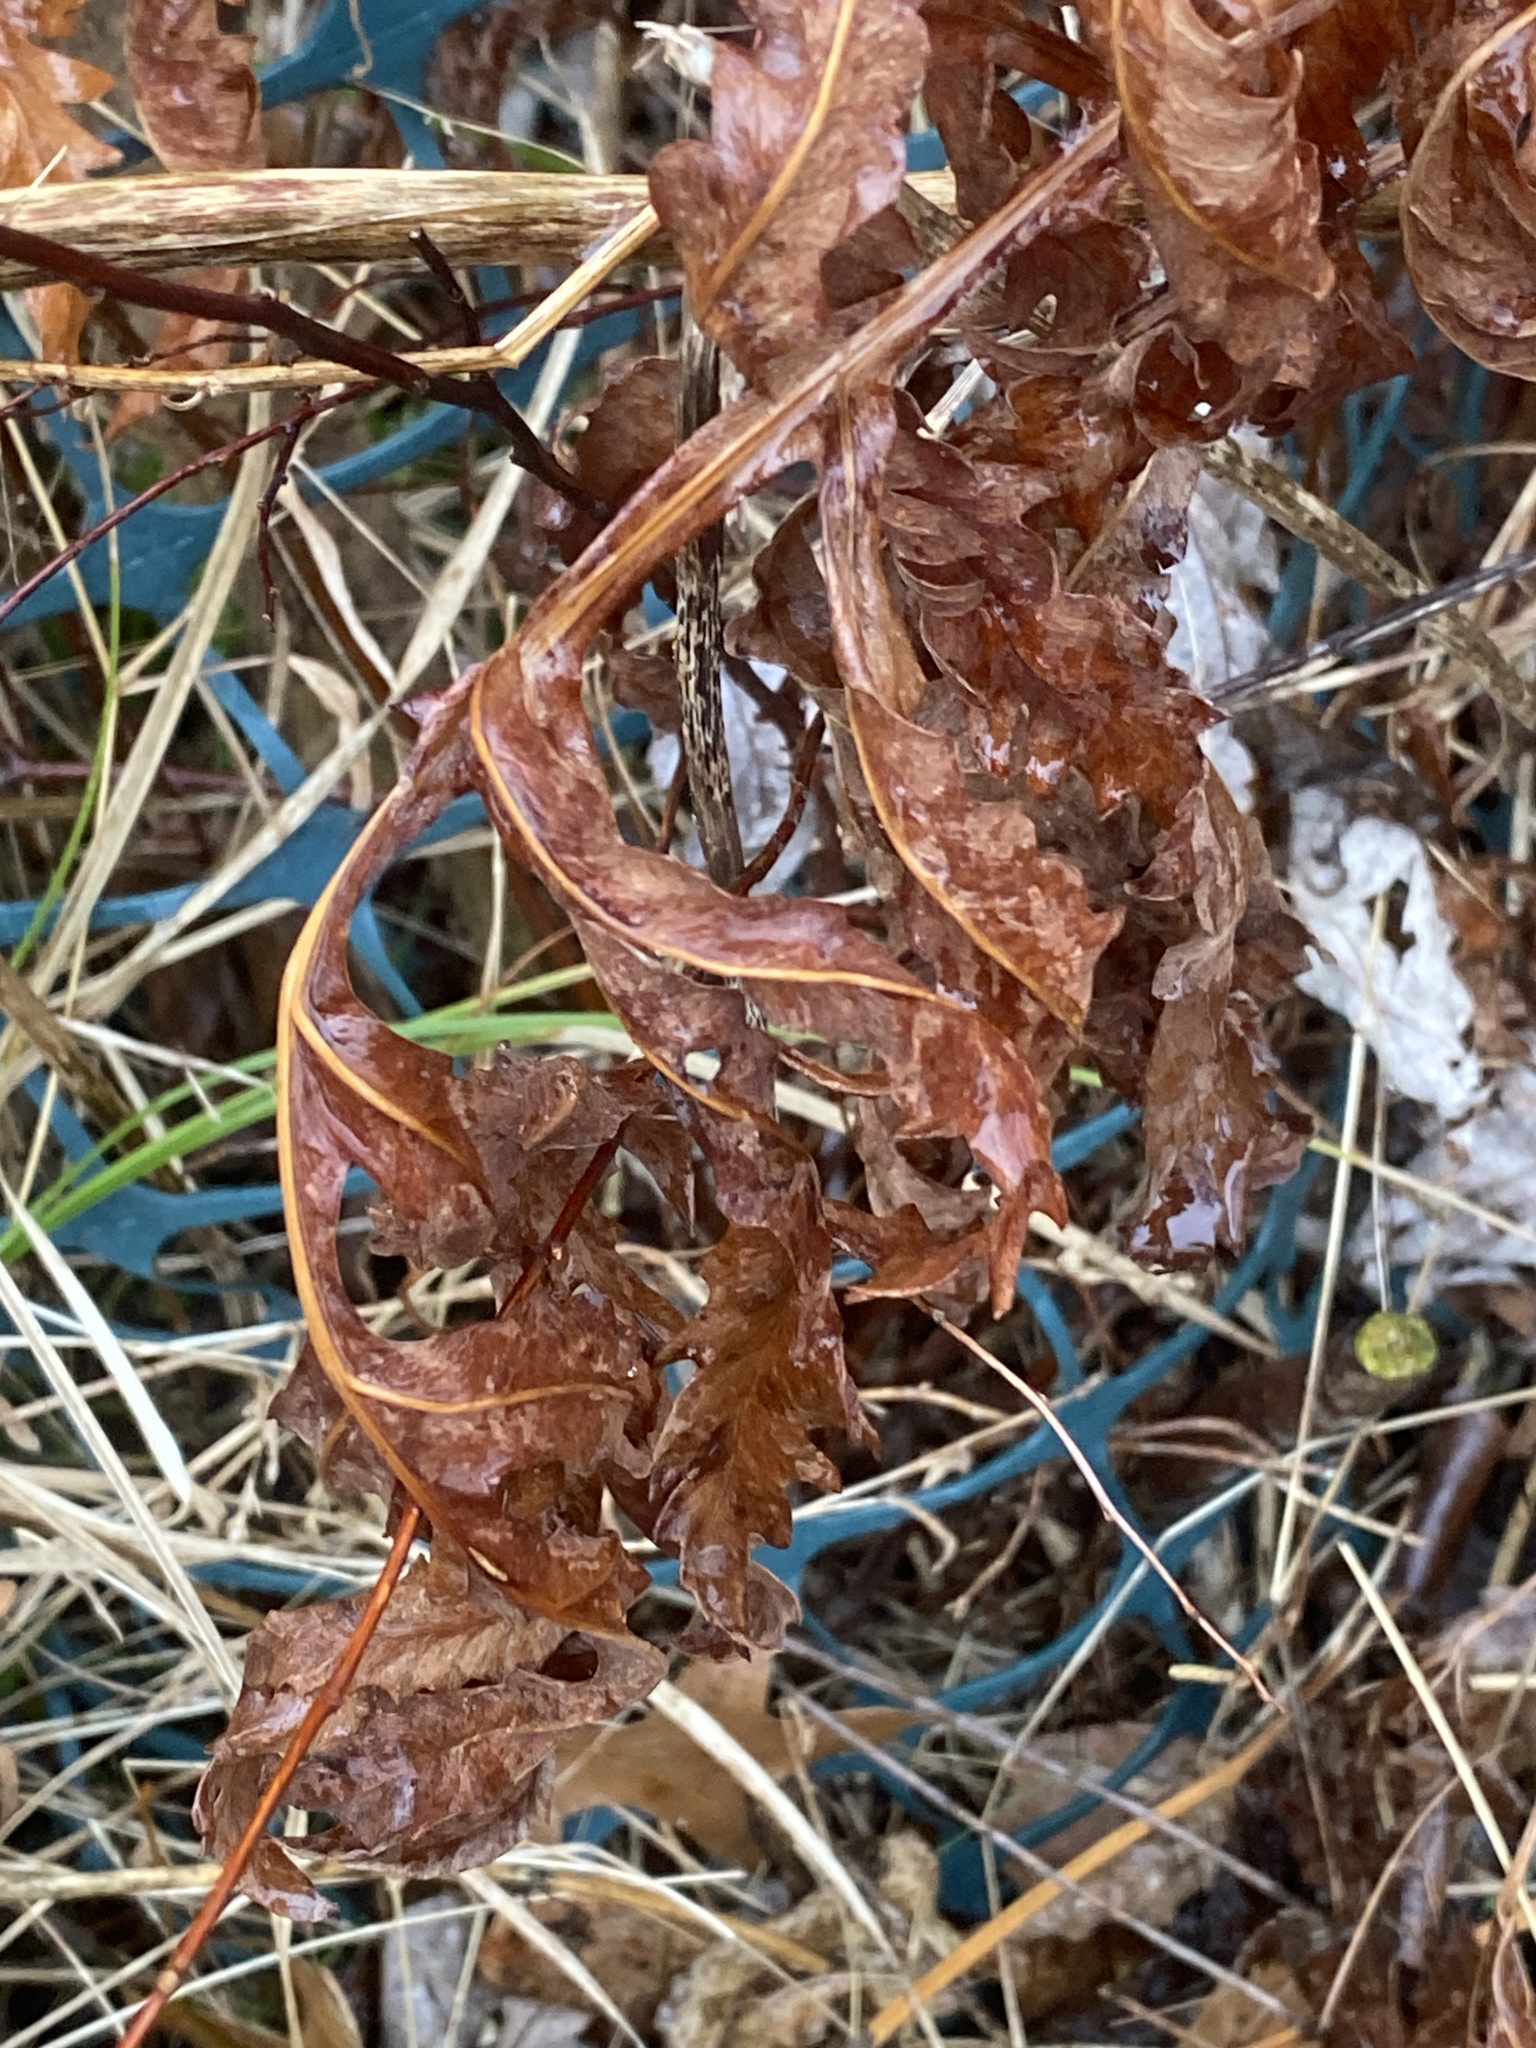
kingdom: Plantae
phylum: Tracheophyta
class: Polypodiopsida
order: Polypodiales
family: Onocleaceae
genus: Onoclea
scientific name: Onoclea sensibilis
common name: Sensitive fern
